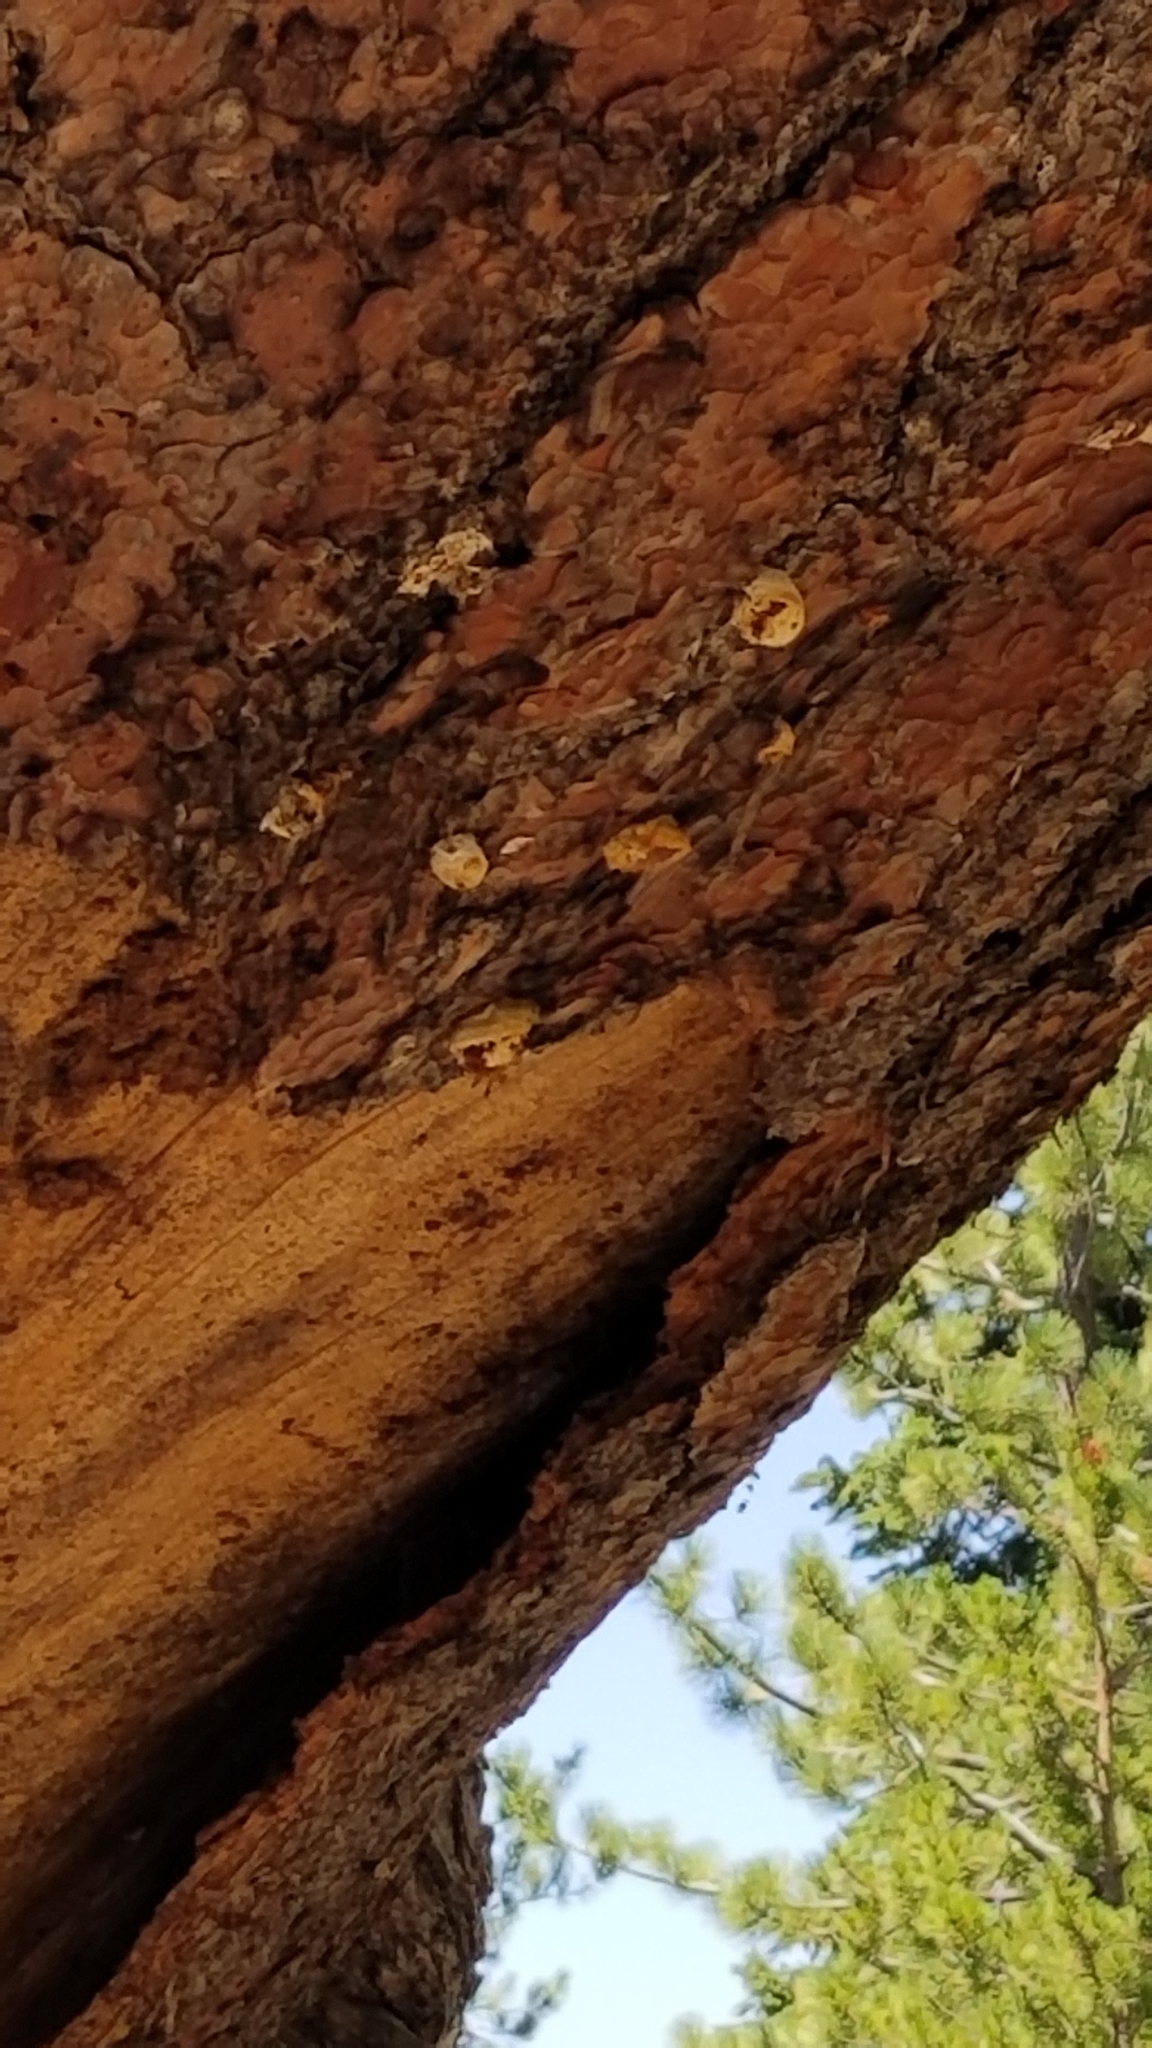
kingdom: Fungi
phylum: Basidiomycota
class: Agaricomycetes
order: Polyporales
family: Polyporaceae
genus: Cryptoporus
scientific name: Cryptoporus volvatus
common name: Veiled polypore
